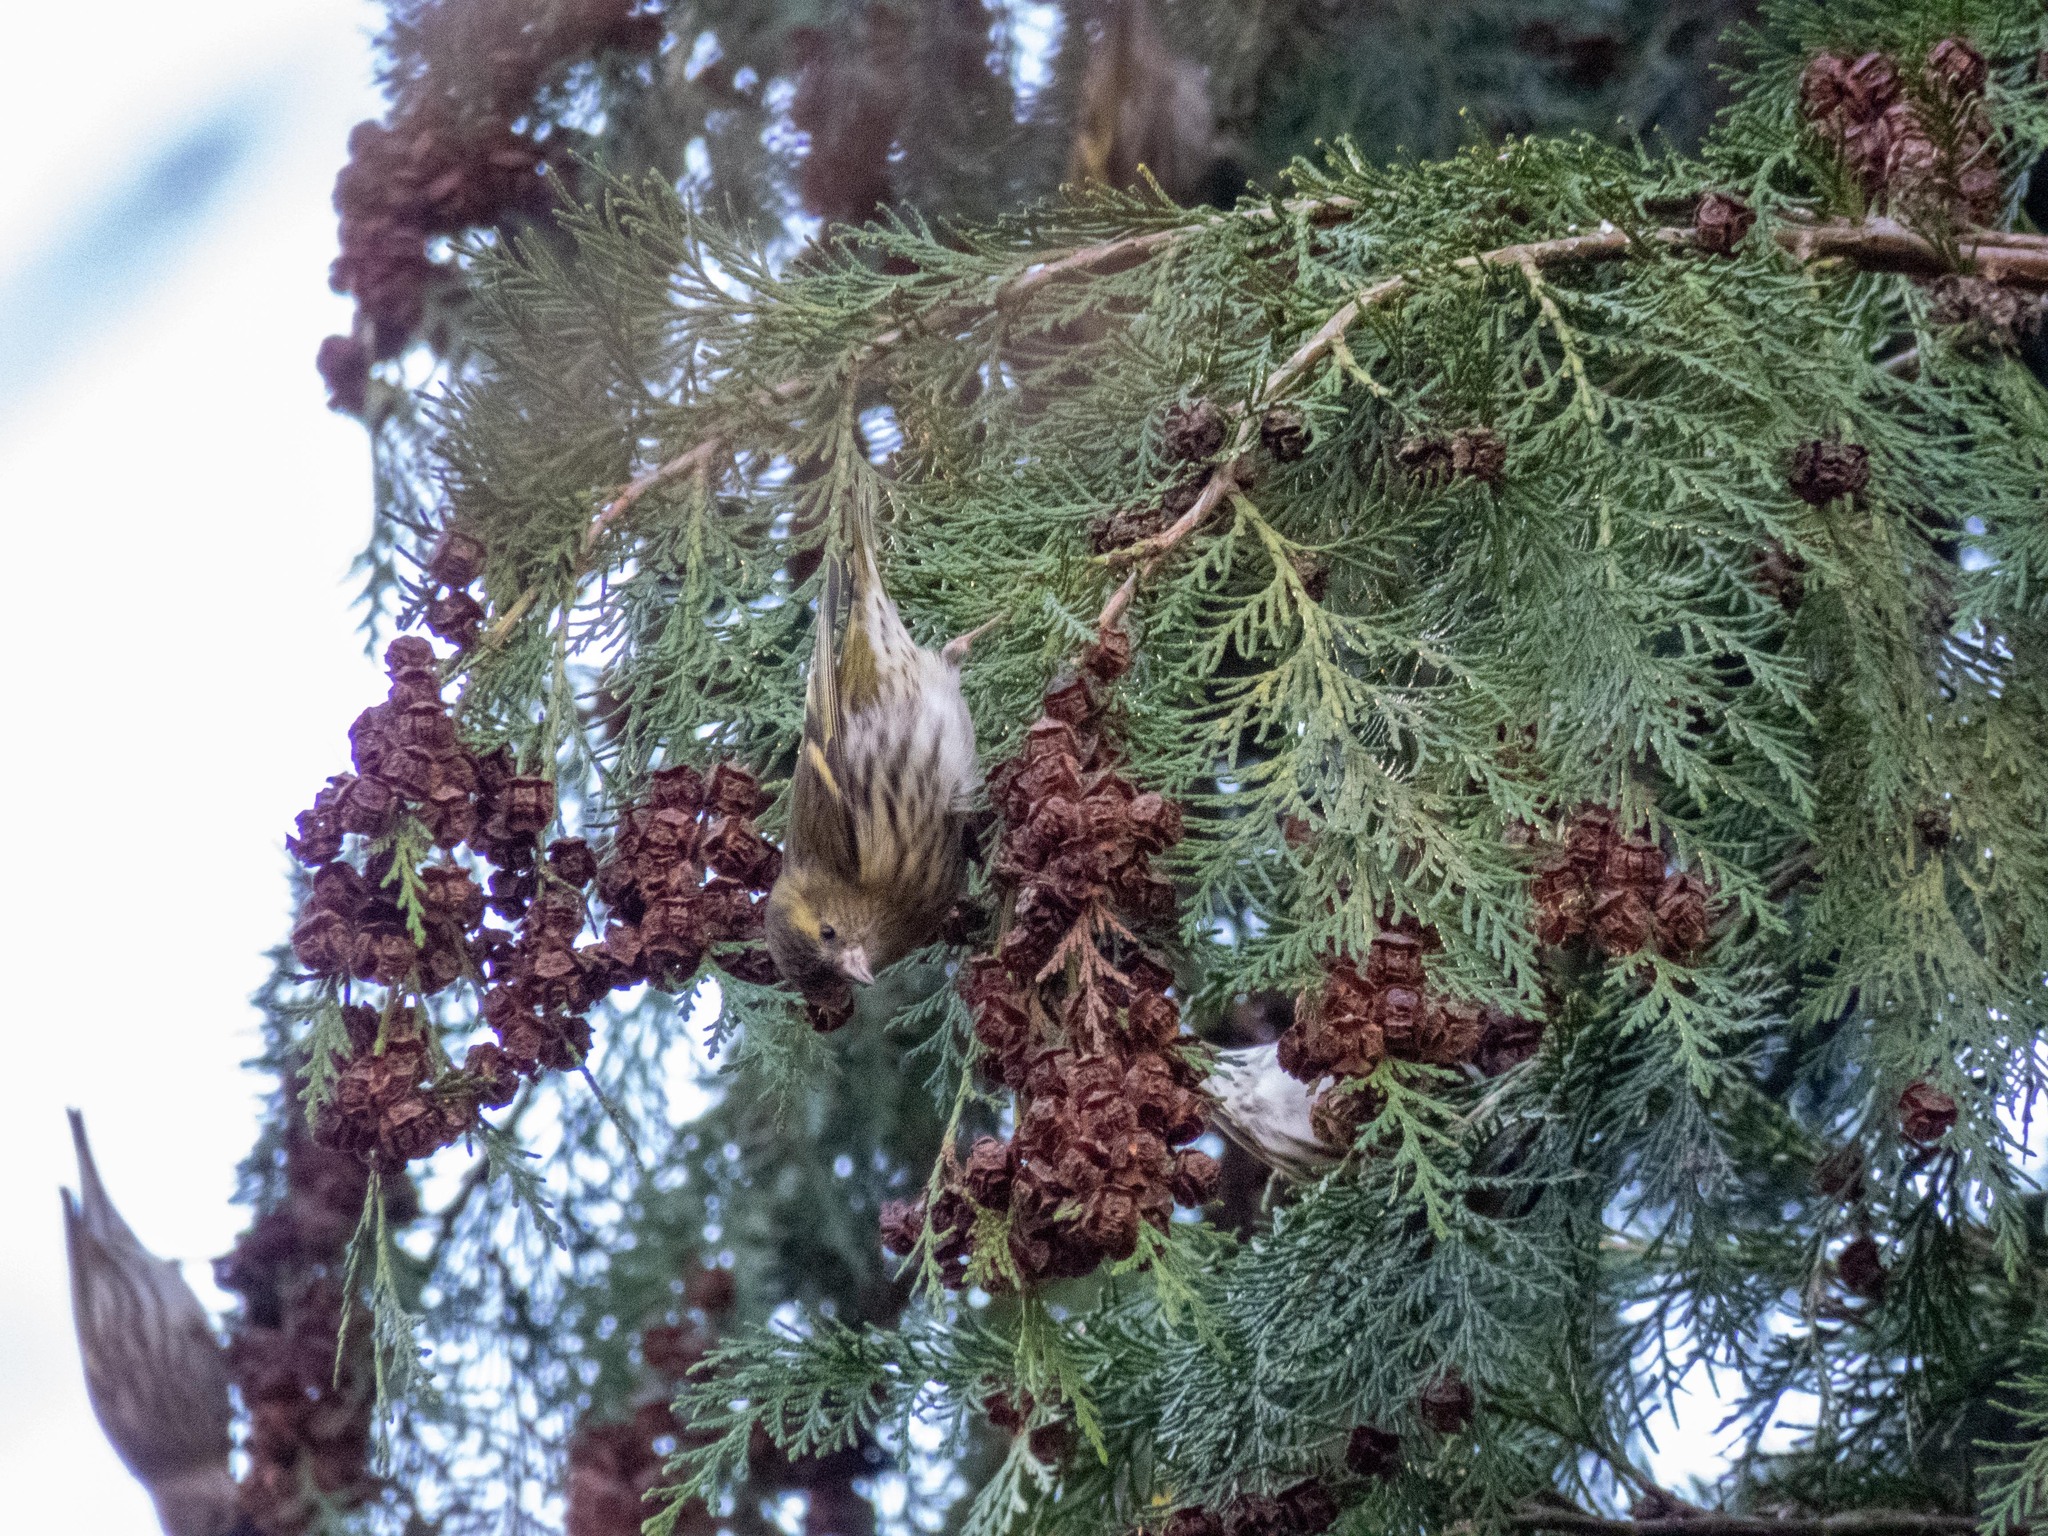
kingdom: Animalia
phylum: Chordata
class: Aves
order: Passeriformes
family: Fringillidae
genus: Spinus
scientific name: Spinus spinus
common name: Eurasian siskin
